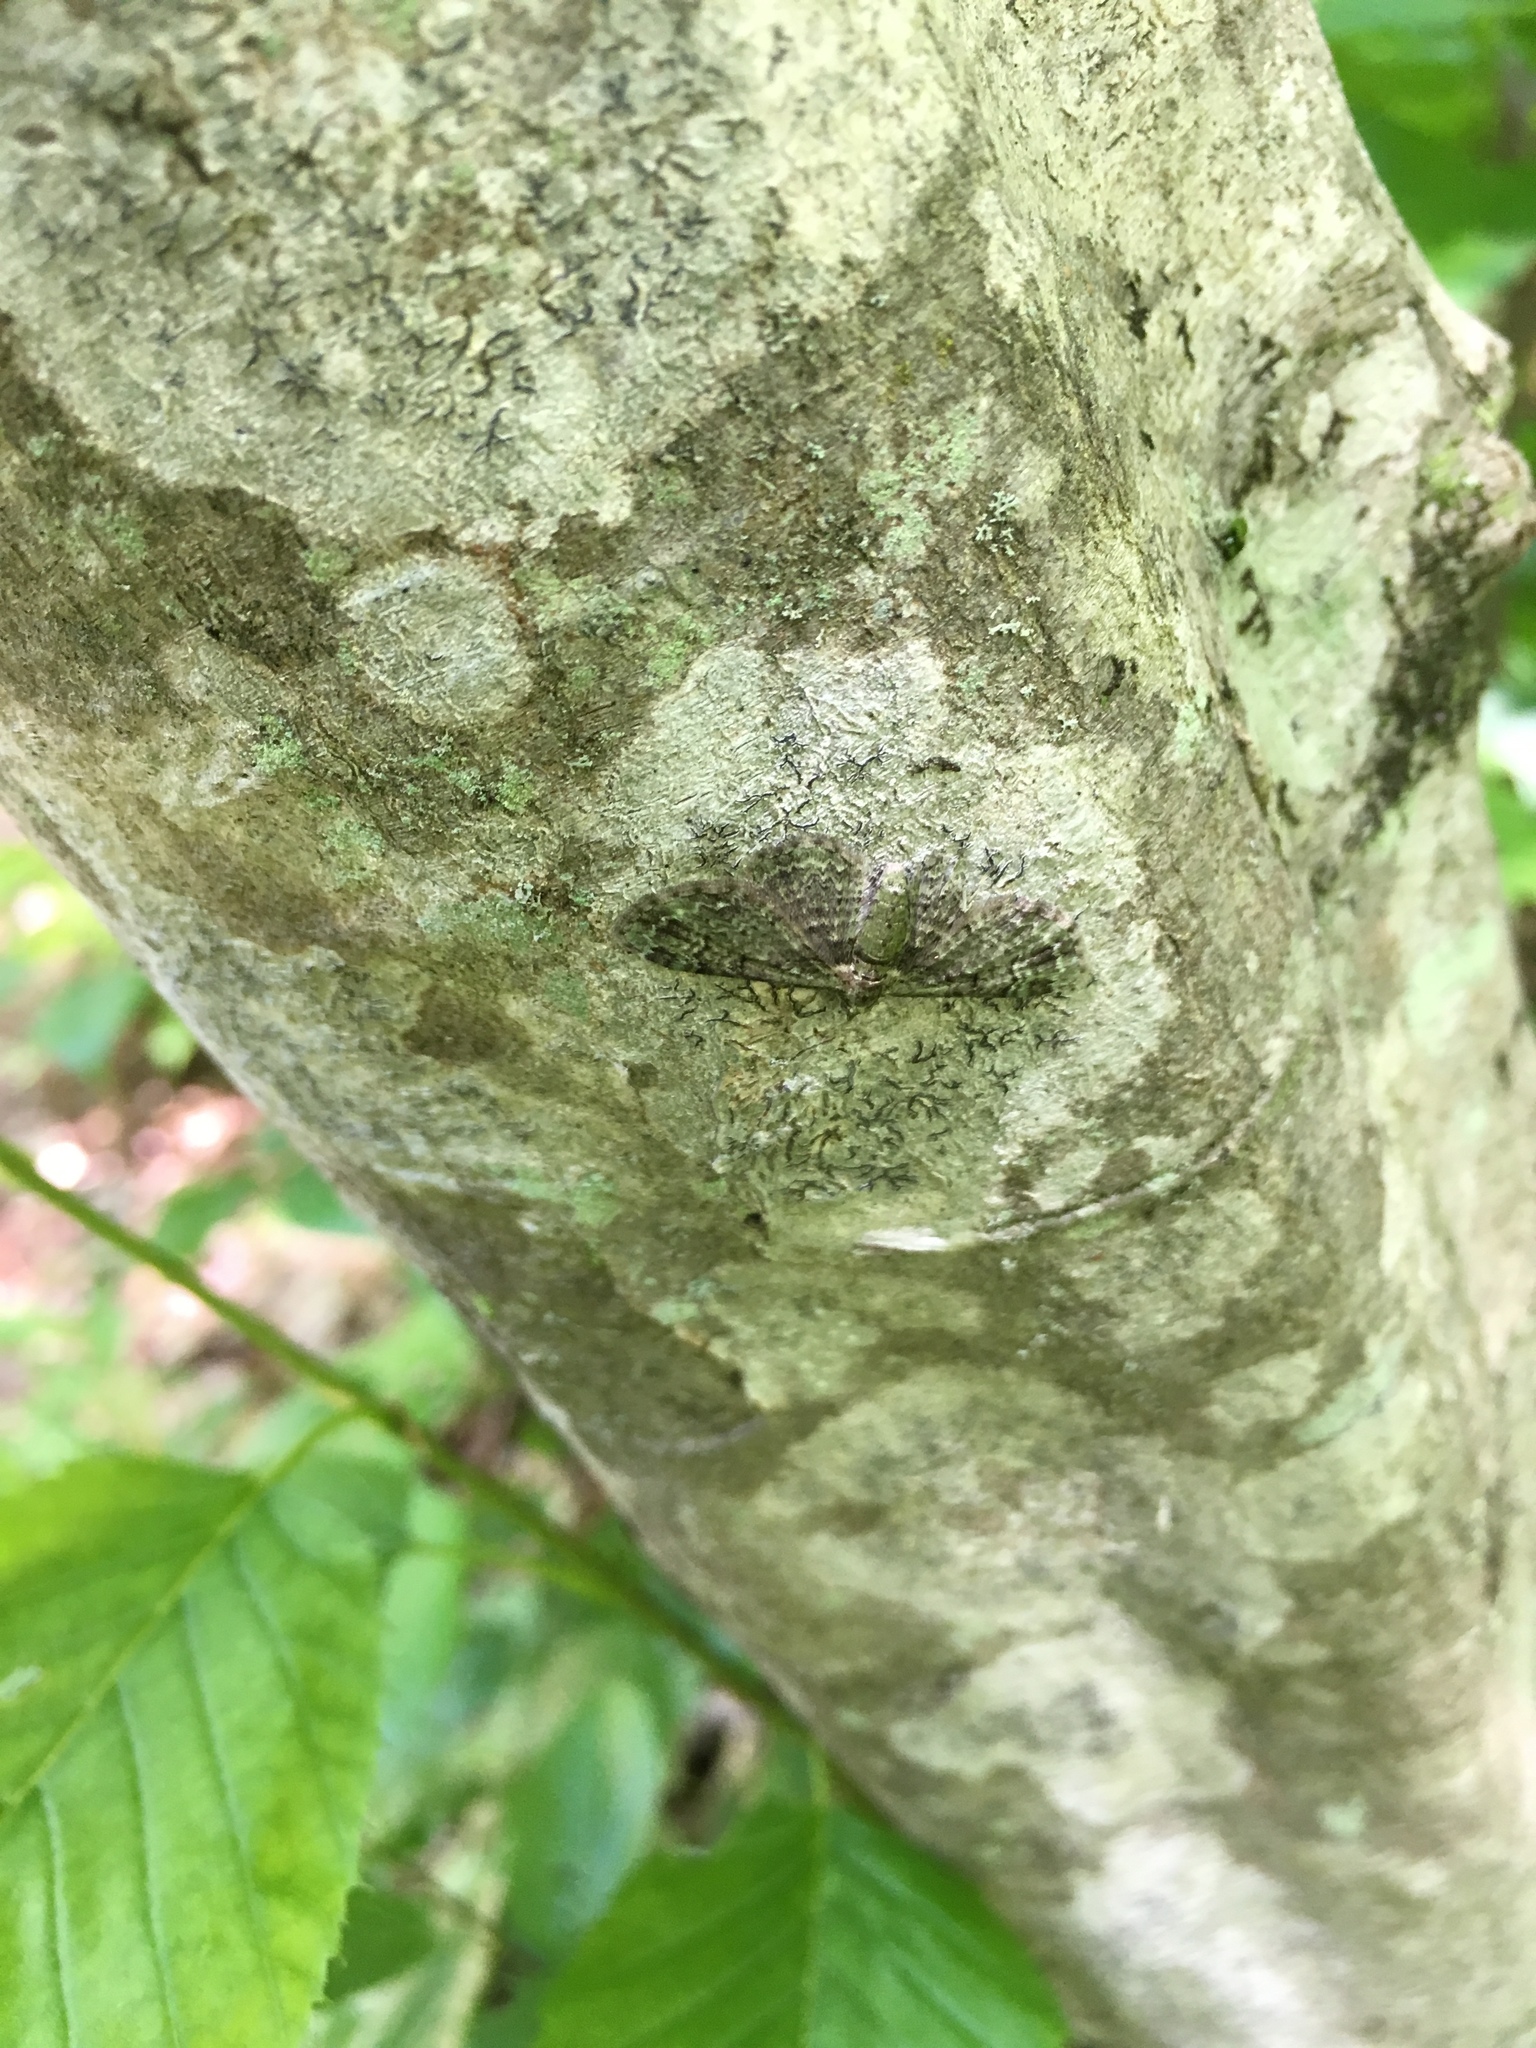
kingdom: Animalia
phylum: Arthropoda
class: Insecta
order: Lepidoptera
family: Geometridae
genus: Pasiphila
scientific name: Pasiphila rectangulata
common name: Green pug
